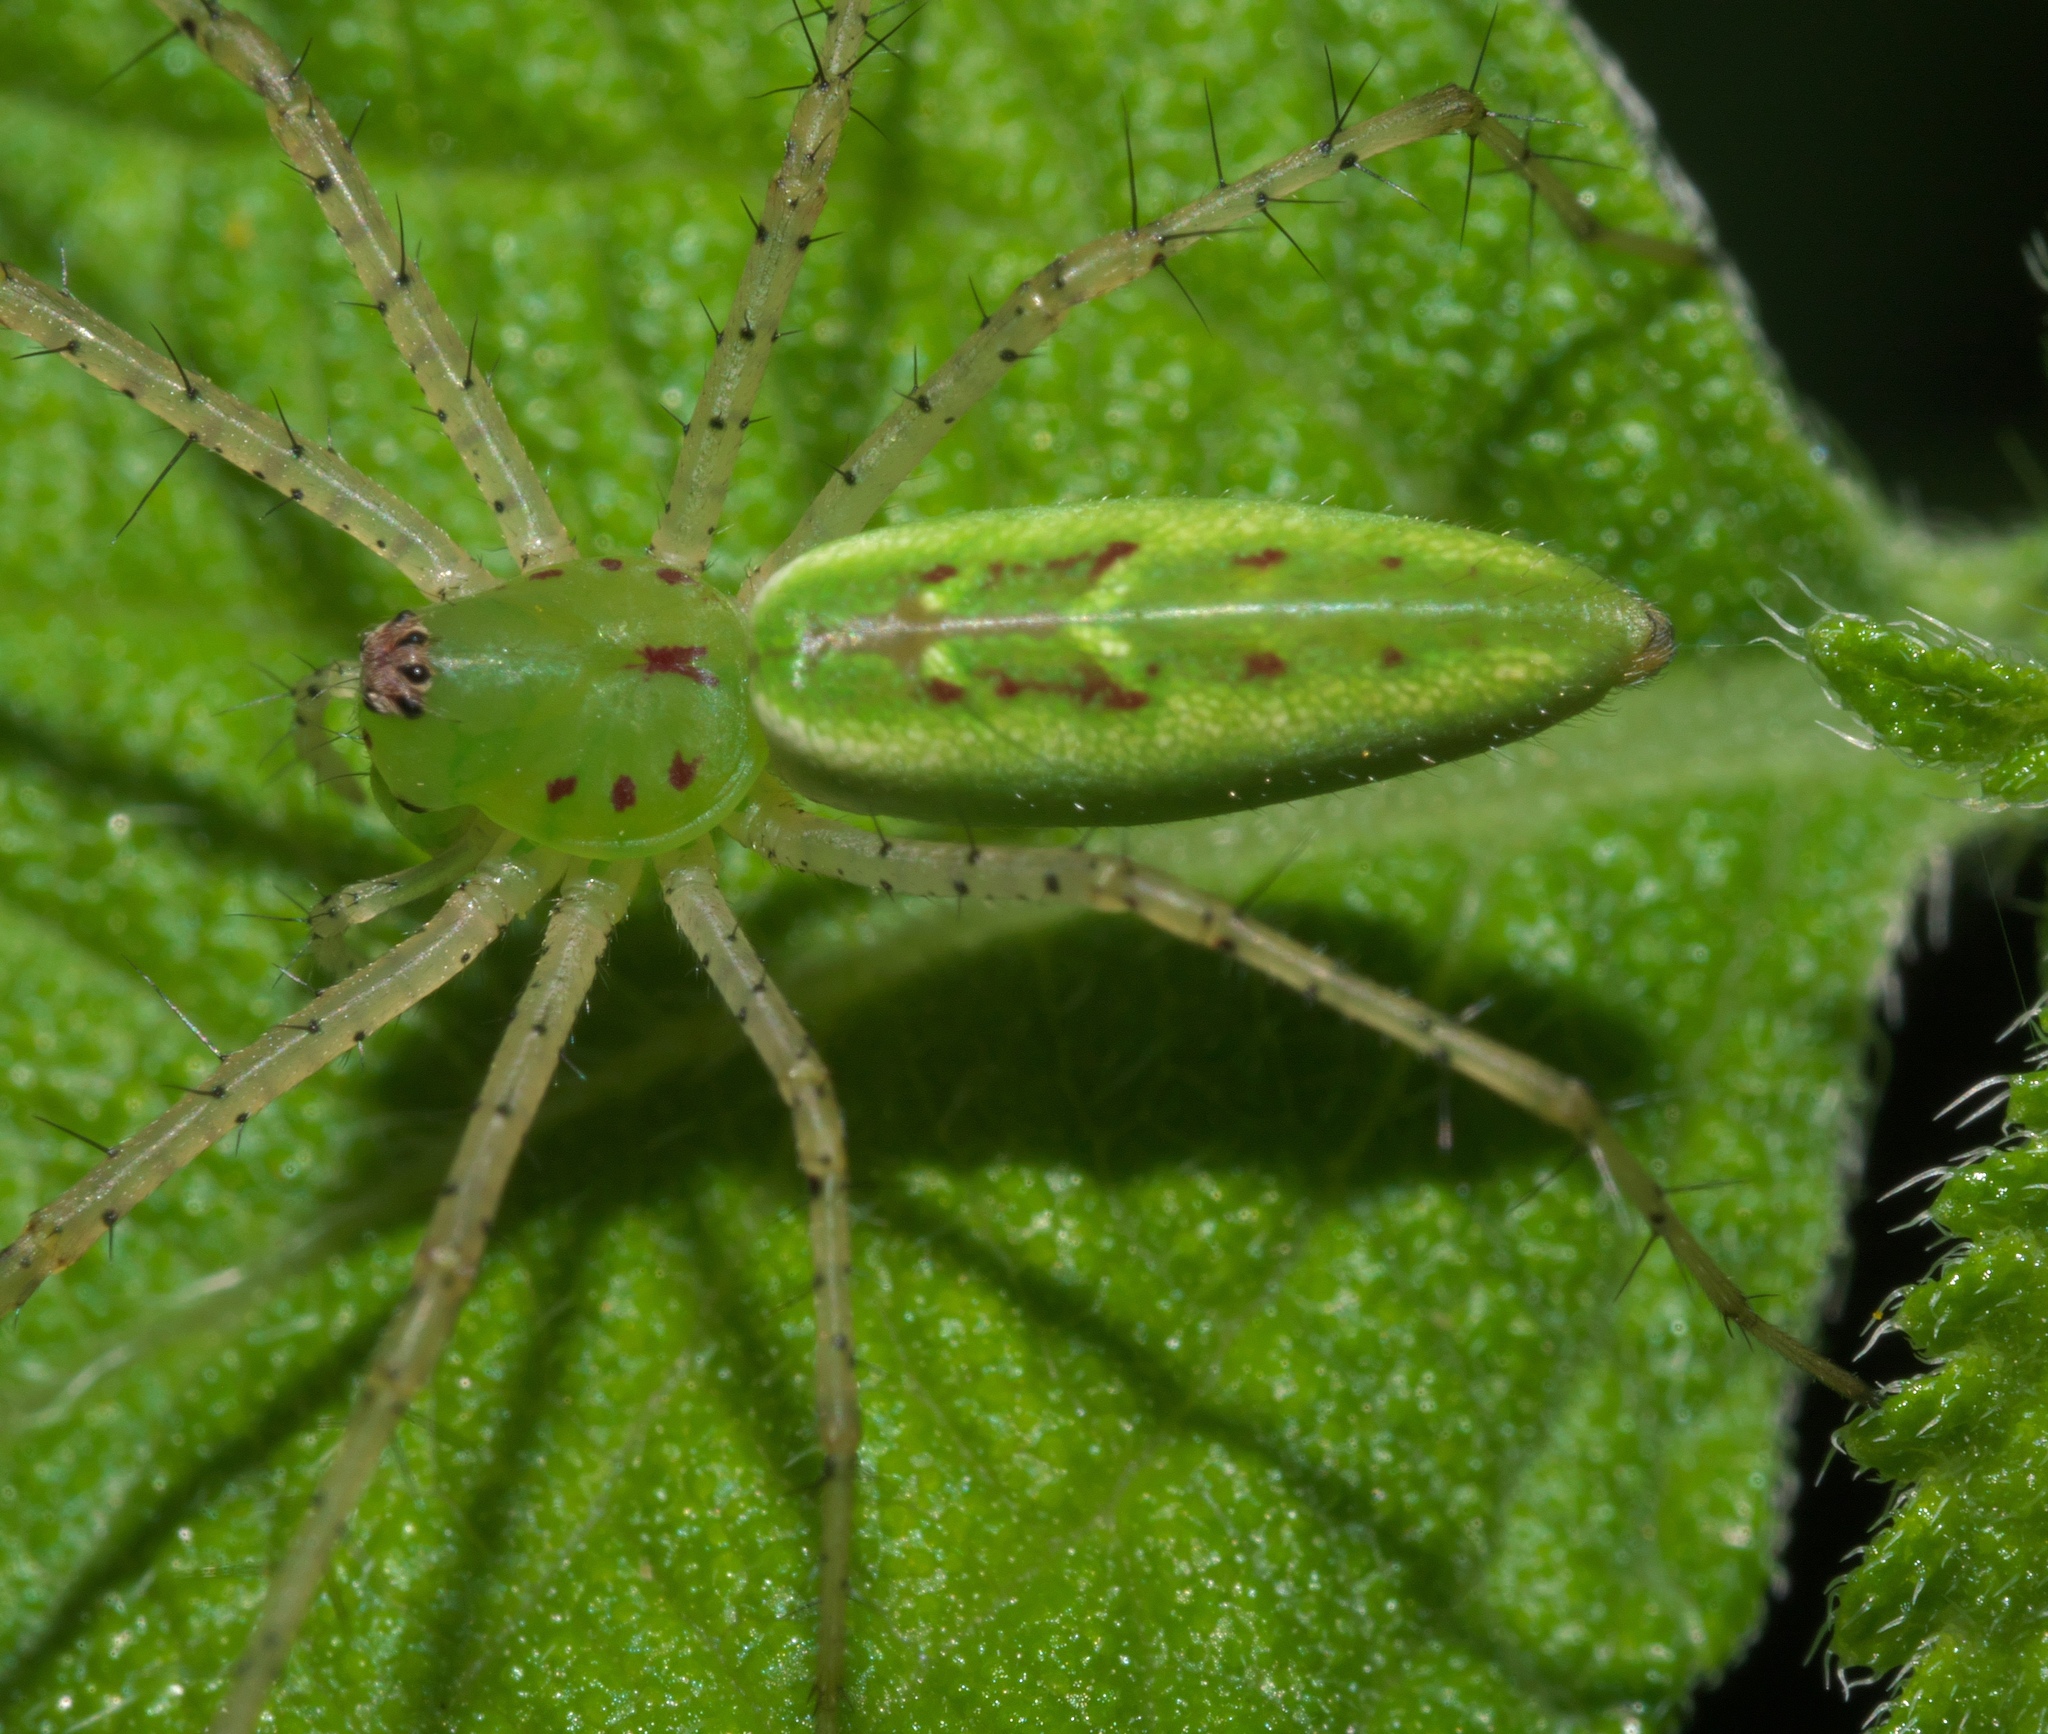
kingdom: Animalia
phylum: Arthropoda
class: Arachnida
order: Araneae
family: Oxyopidae
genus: Peucetia
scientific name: Peucetia viridans
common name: Lynx spiders
